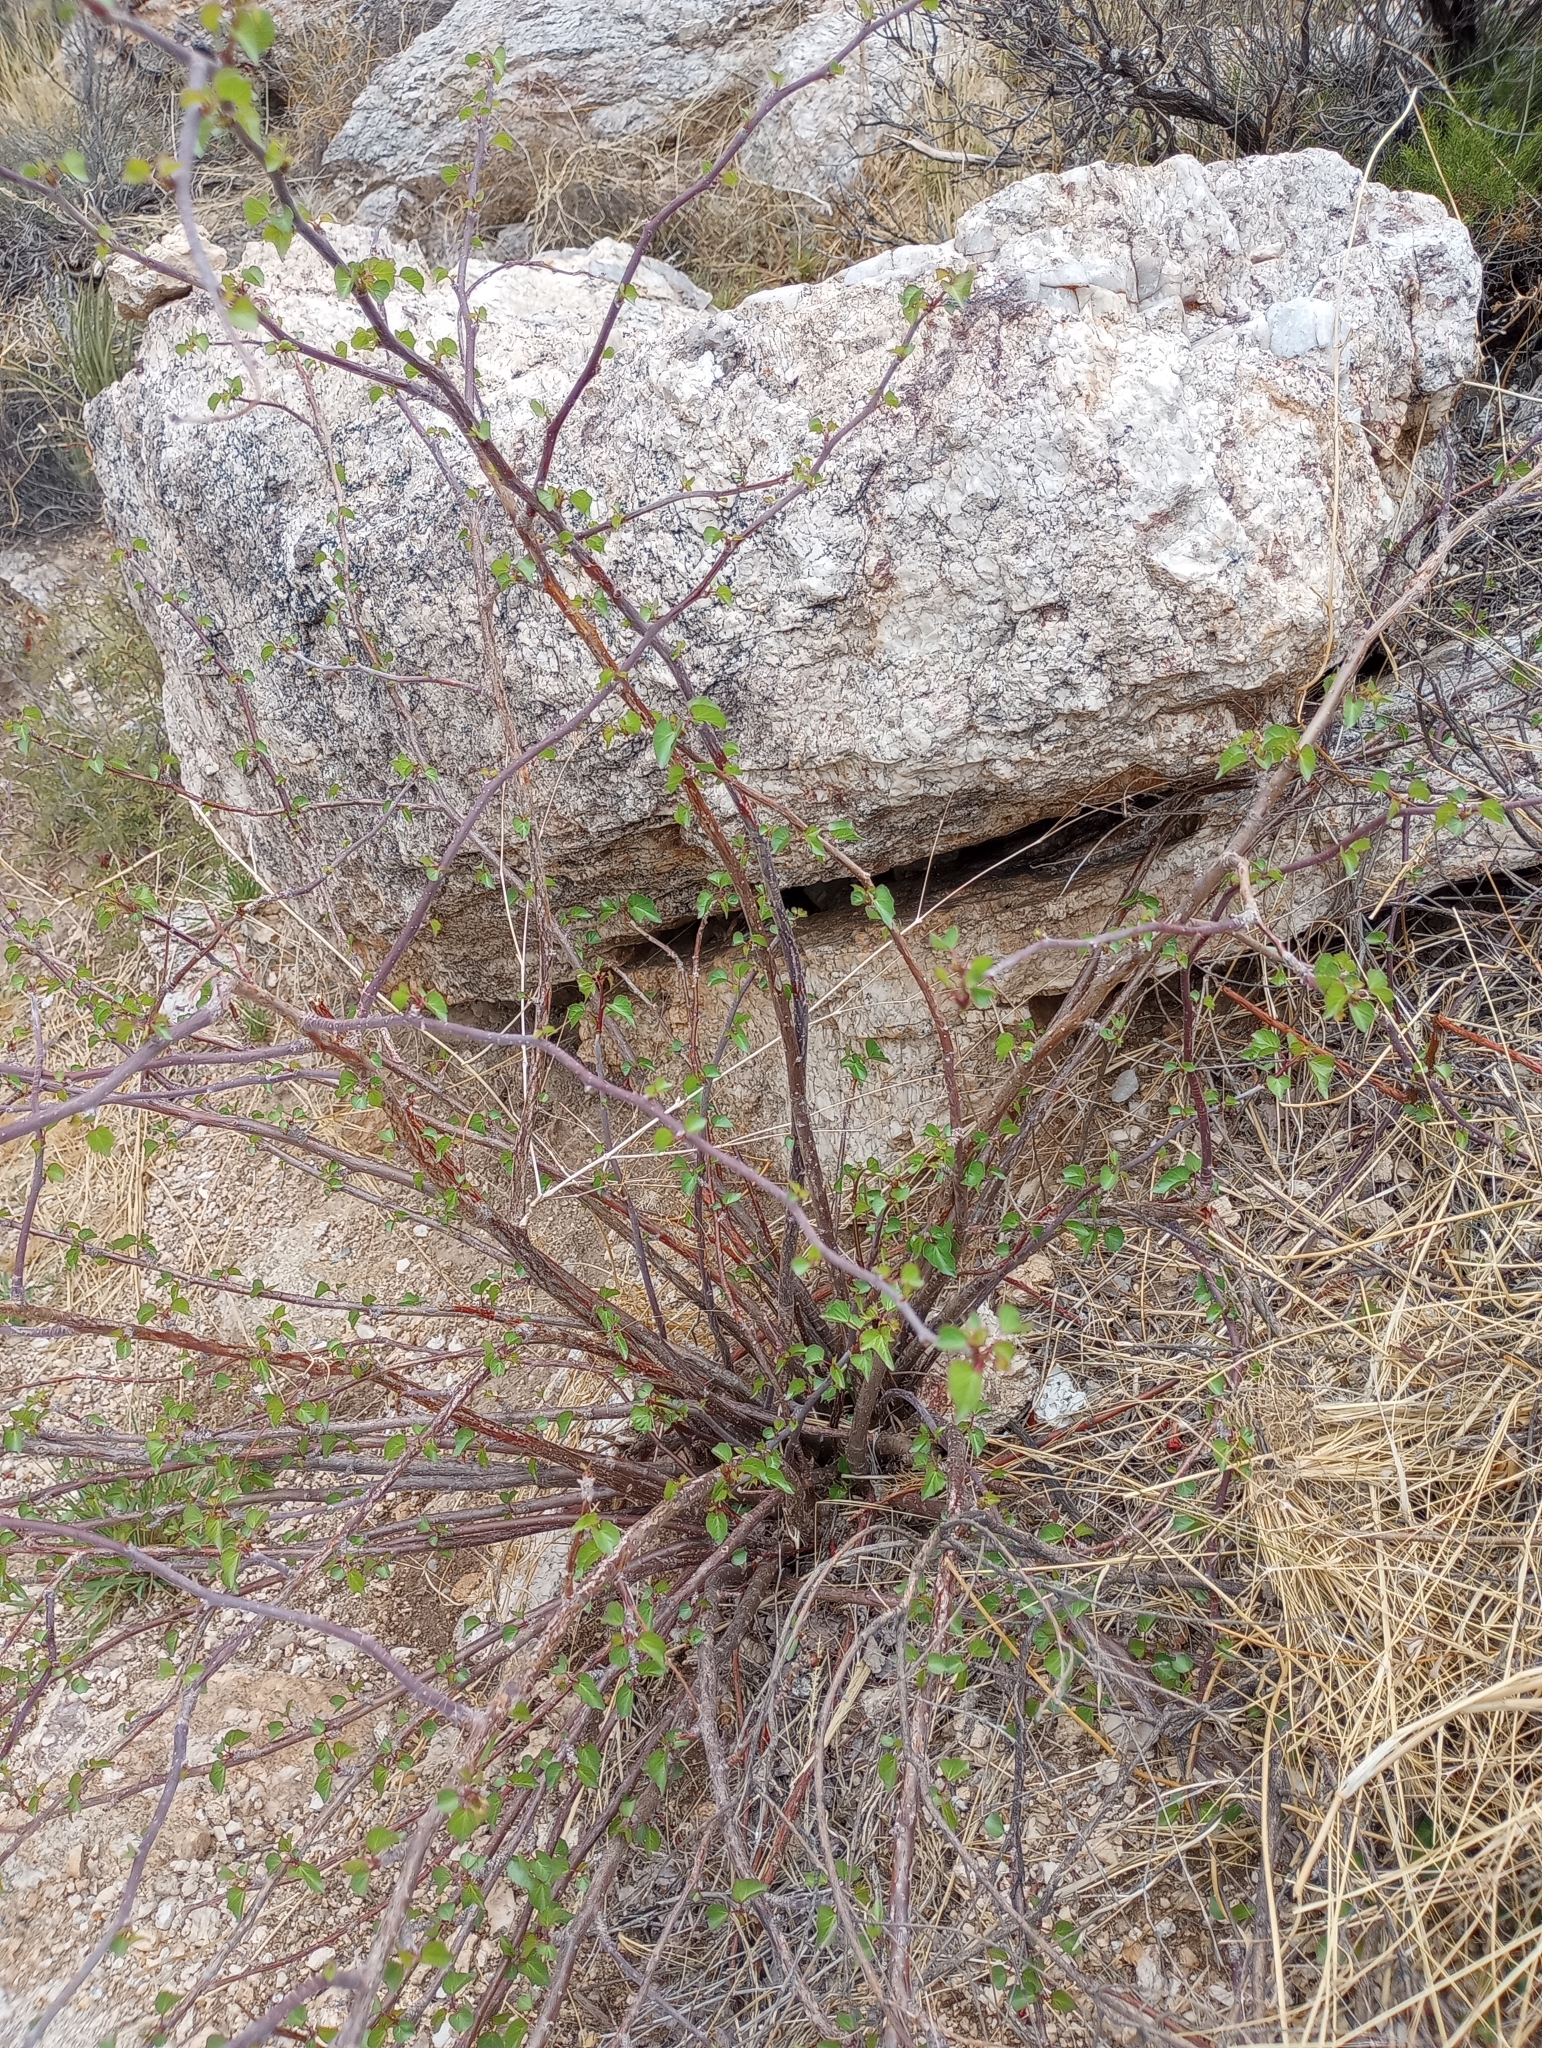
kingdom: Plantae
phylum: Tracheophyta
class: Magnoliopsida
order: Malpighiales
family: Euphorbiaceae
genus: Jatropha
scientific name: Jatropha cardiophylla
